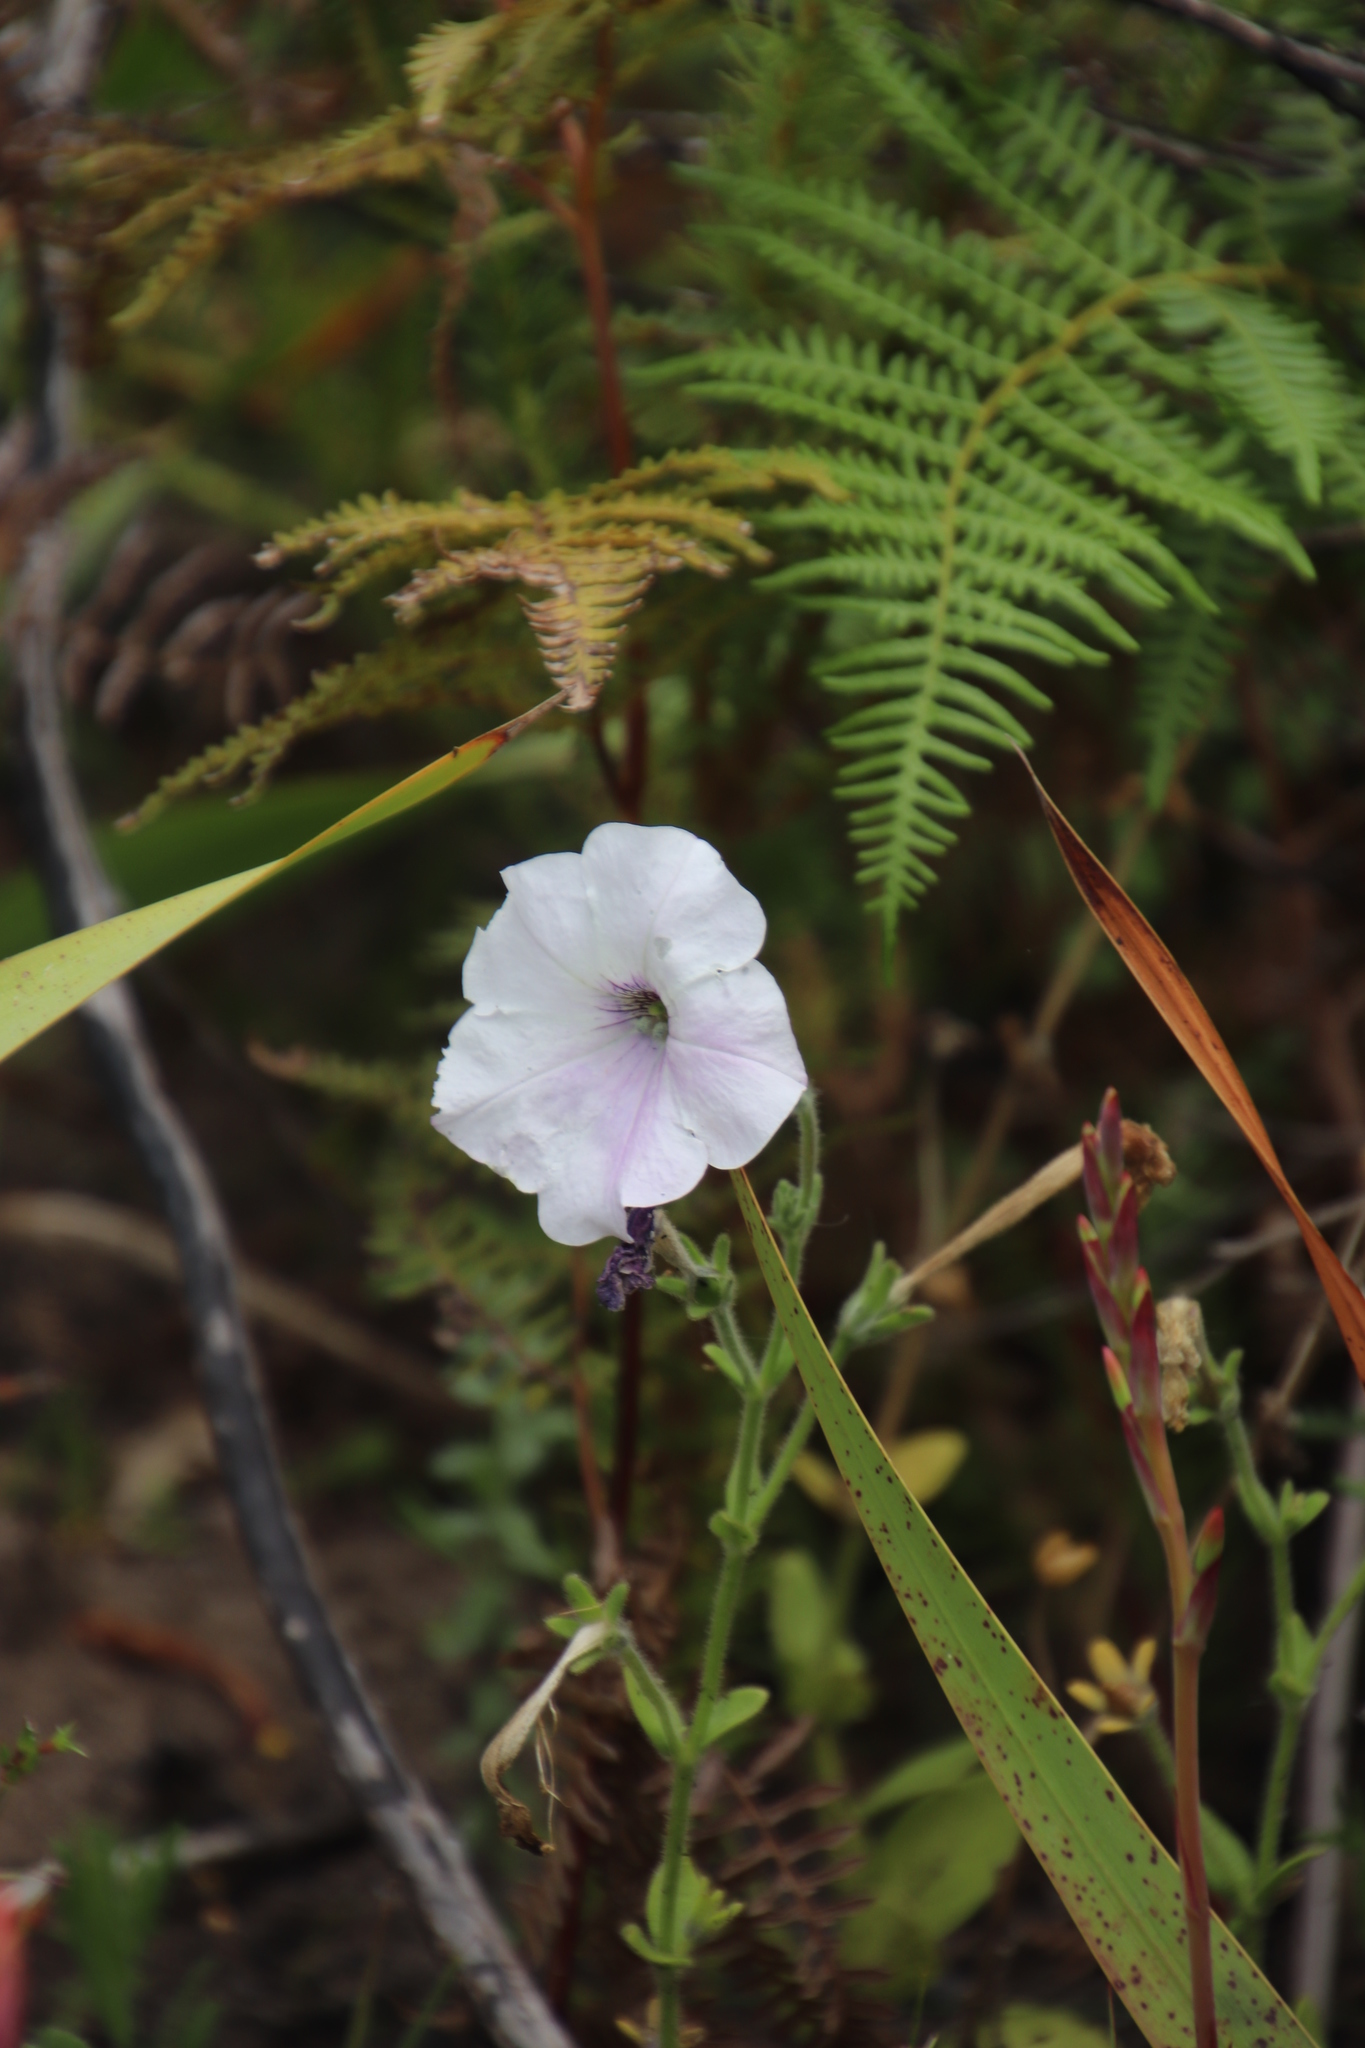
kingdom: Plantae
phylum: Tracheophyta
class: Magnoliopsida
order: Solanales
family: Solanaceae
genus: Petunia
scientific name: Petunia atkinsiana
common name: Petunia
